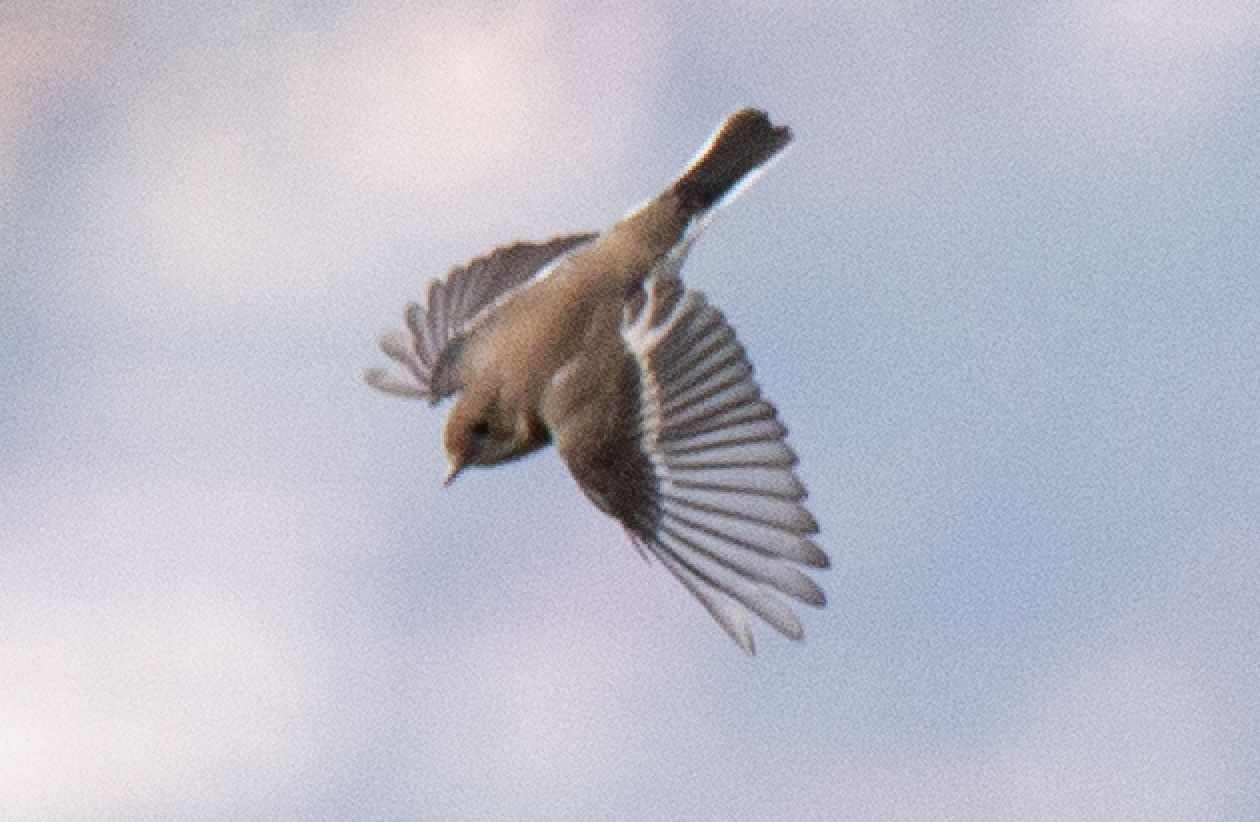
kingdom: Animalia
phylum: Chordata
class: Aves
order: Passeriformes
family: Muscicapidae
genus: Ficedula
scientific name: Ficedula hypoleuca
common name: European pied flycatcher
